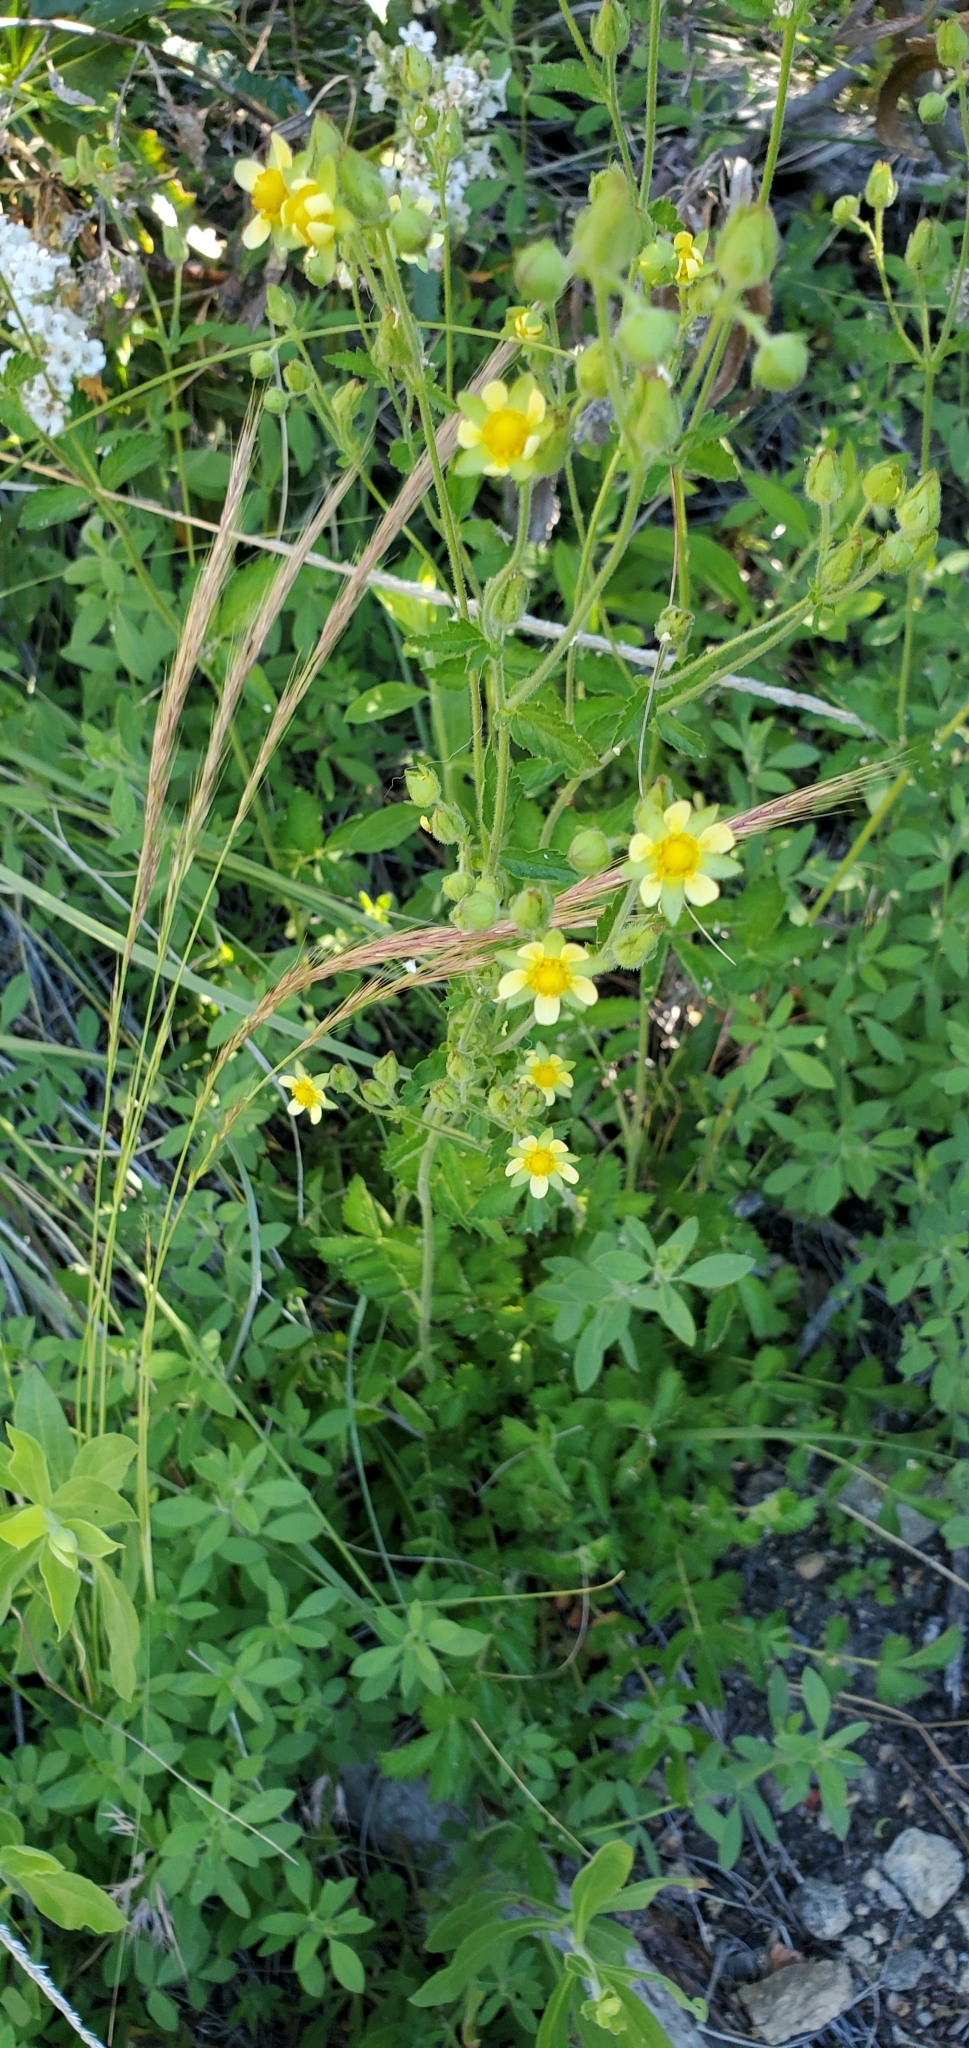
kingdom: Plantae
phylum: Tracheophyta
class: Magnoliopsida
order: Rosales
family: Rosaceae
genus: Drymocallis
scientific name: Drymocallis glandulosa
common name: Sticky cinquefoil
